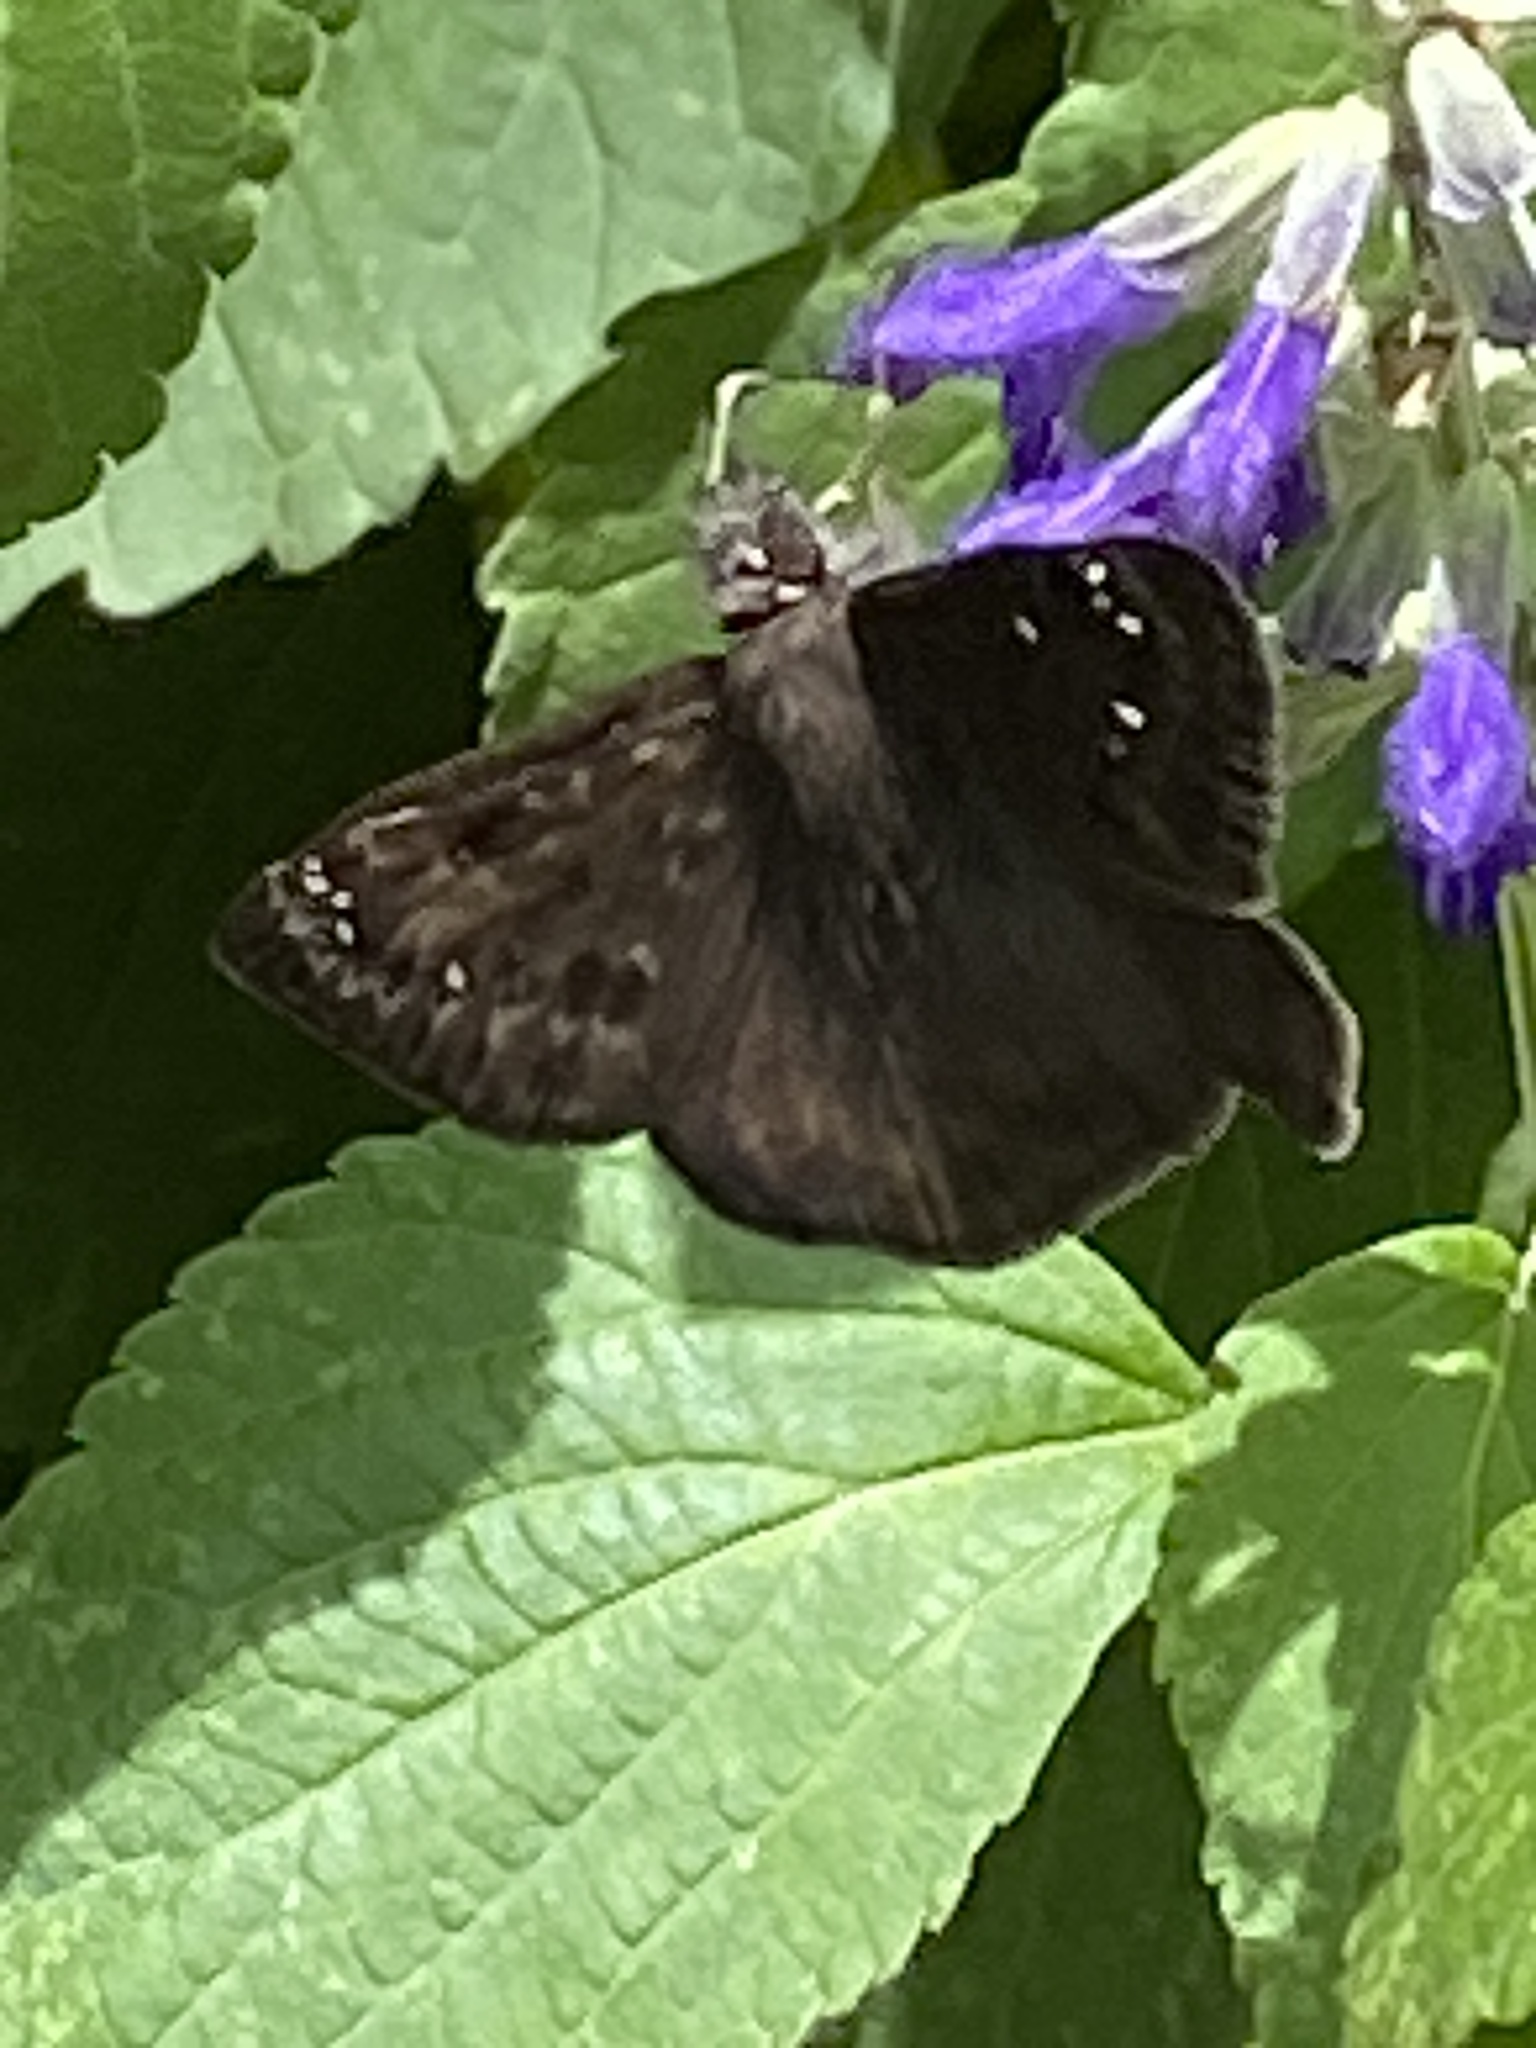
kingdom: Animalia
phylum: Arthropoda
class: Insecta
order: Lepidoptera
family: Hesperiidae
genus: Erynnis
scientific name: Erynnis horatius
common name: Horace's duskywing
